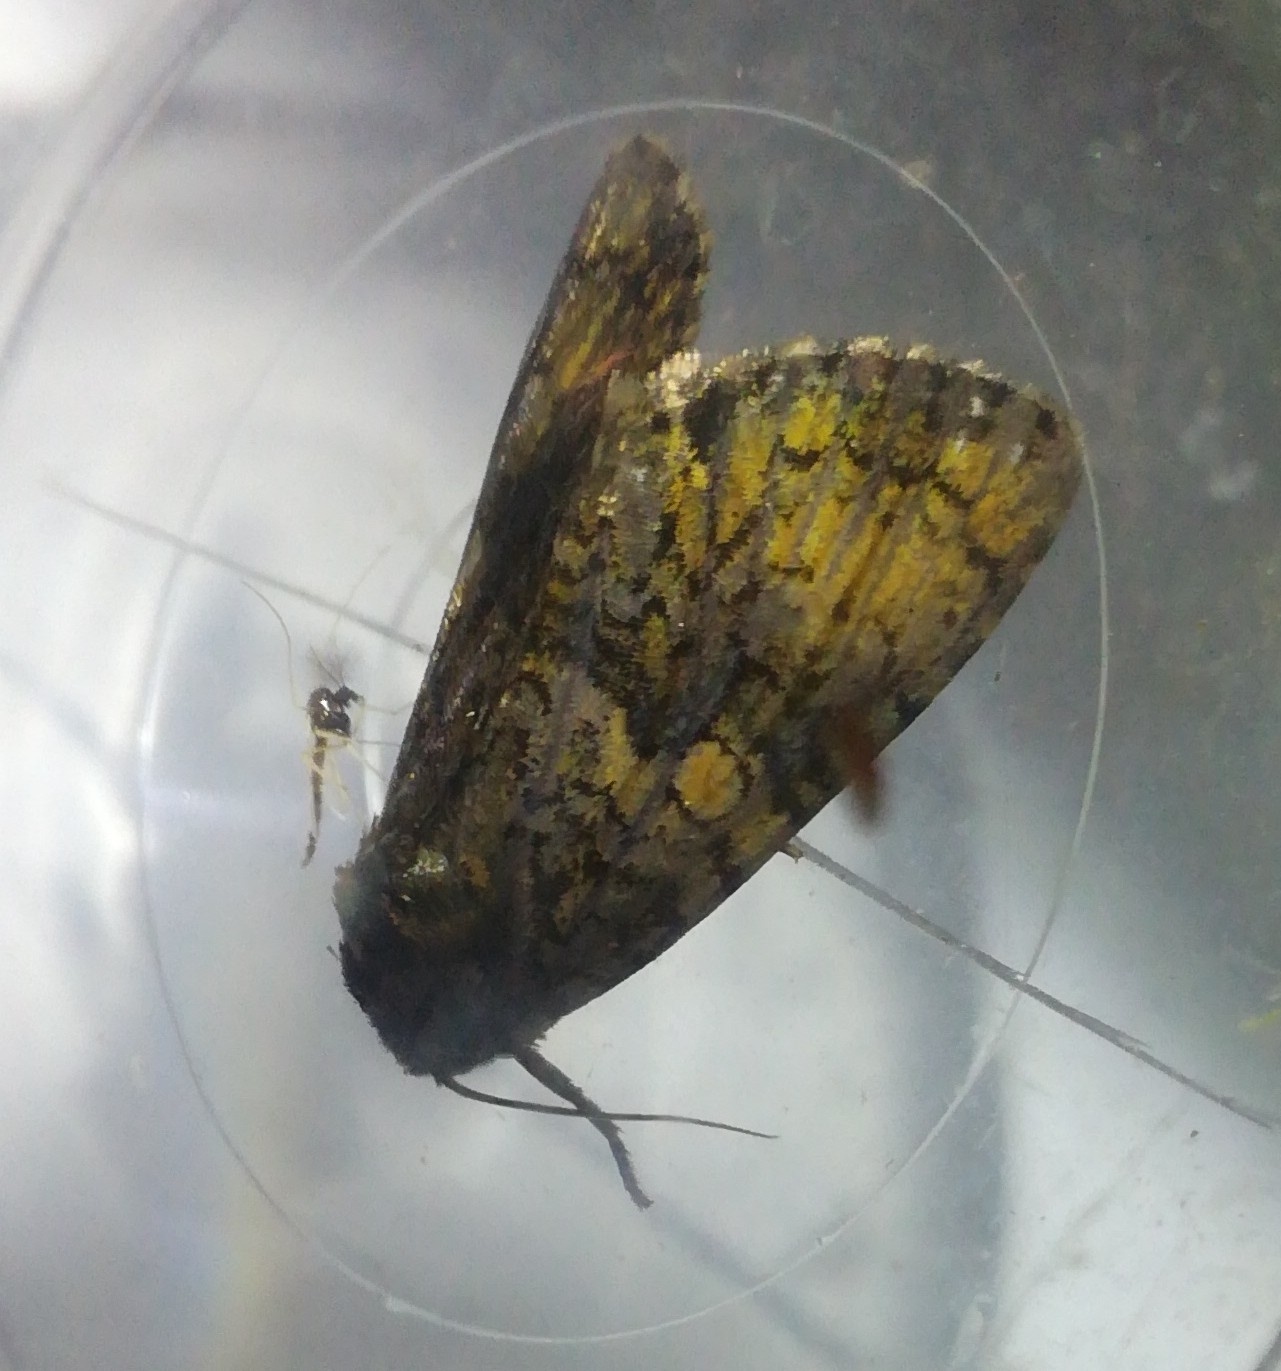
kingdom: Animalia
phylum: Arthropoda
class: Insecta
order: Lepidoptera
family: Noctuidae
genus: Craniophora
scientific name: Craniophora ligustri
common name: Coronet
